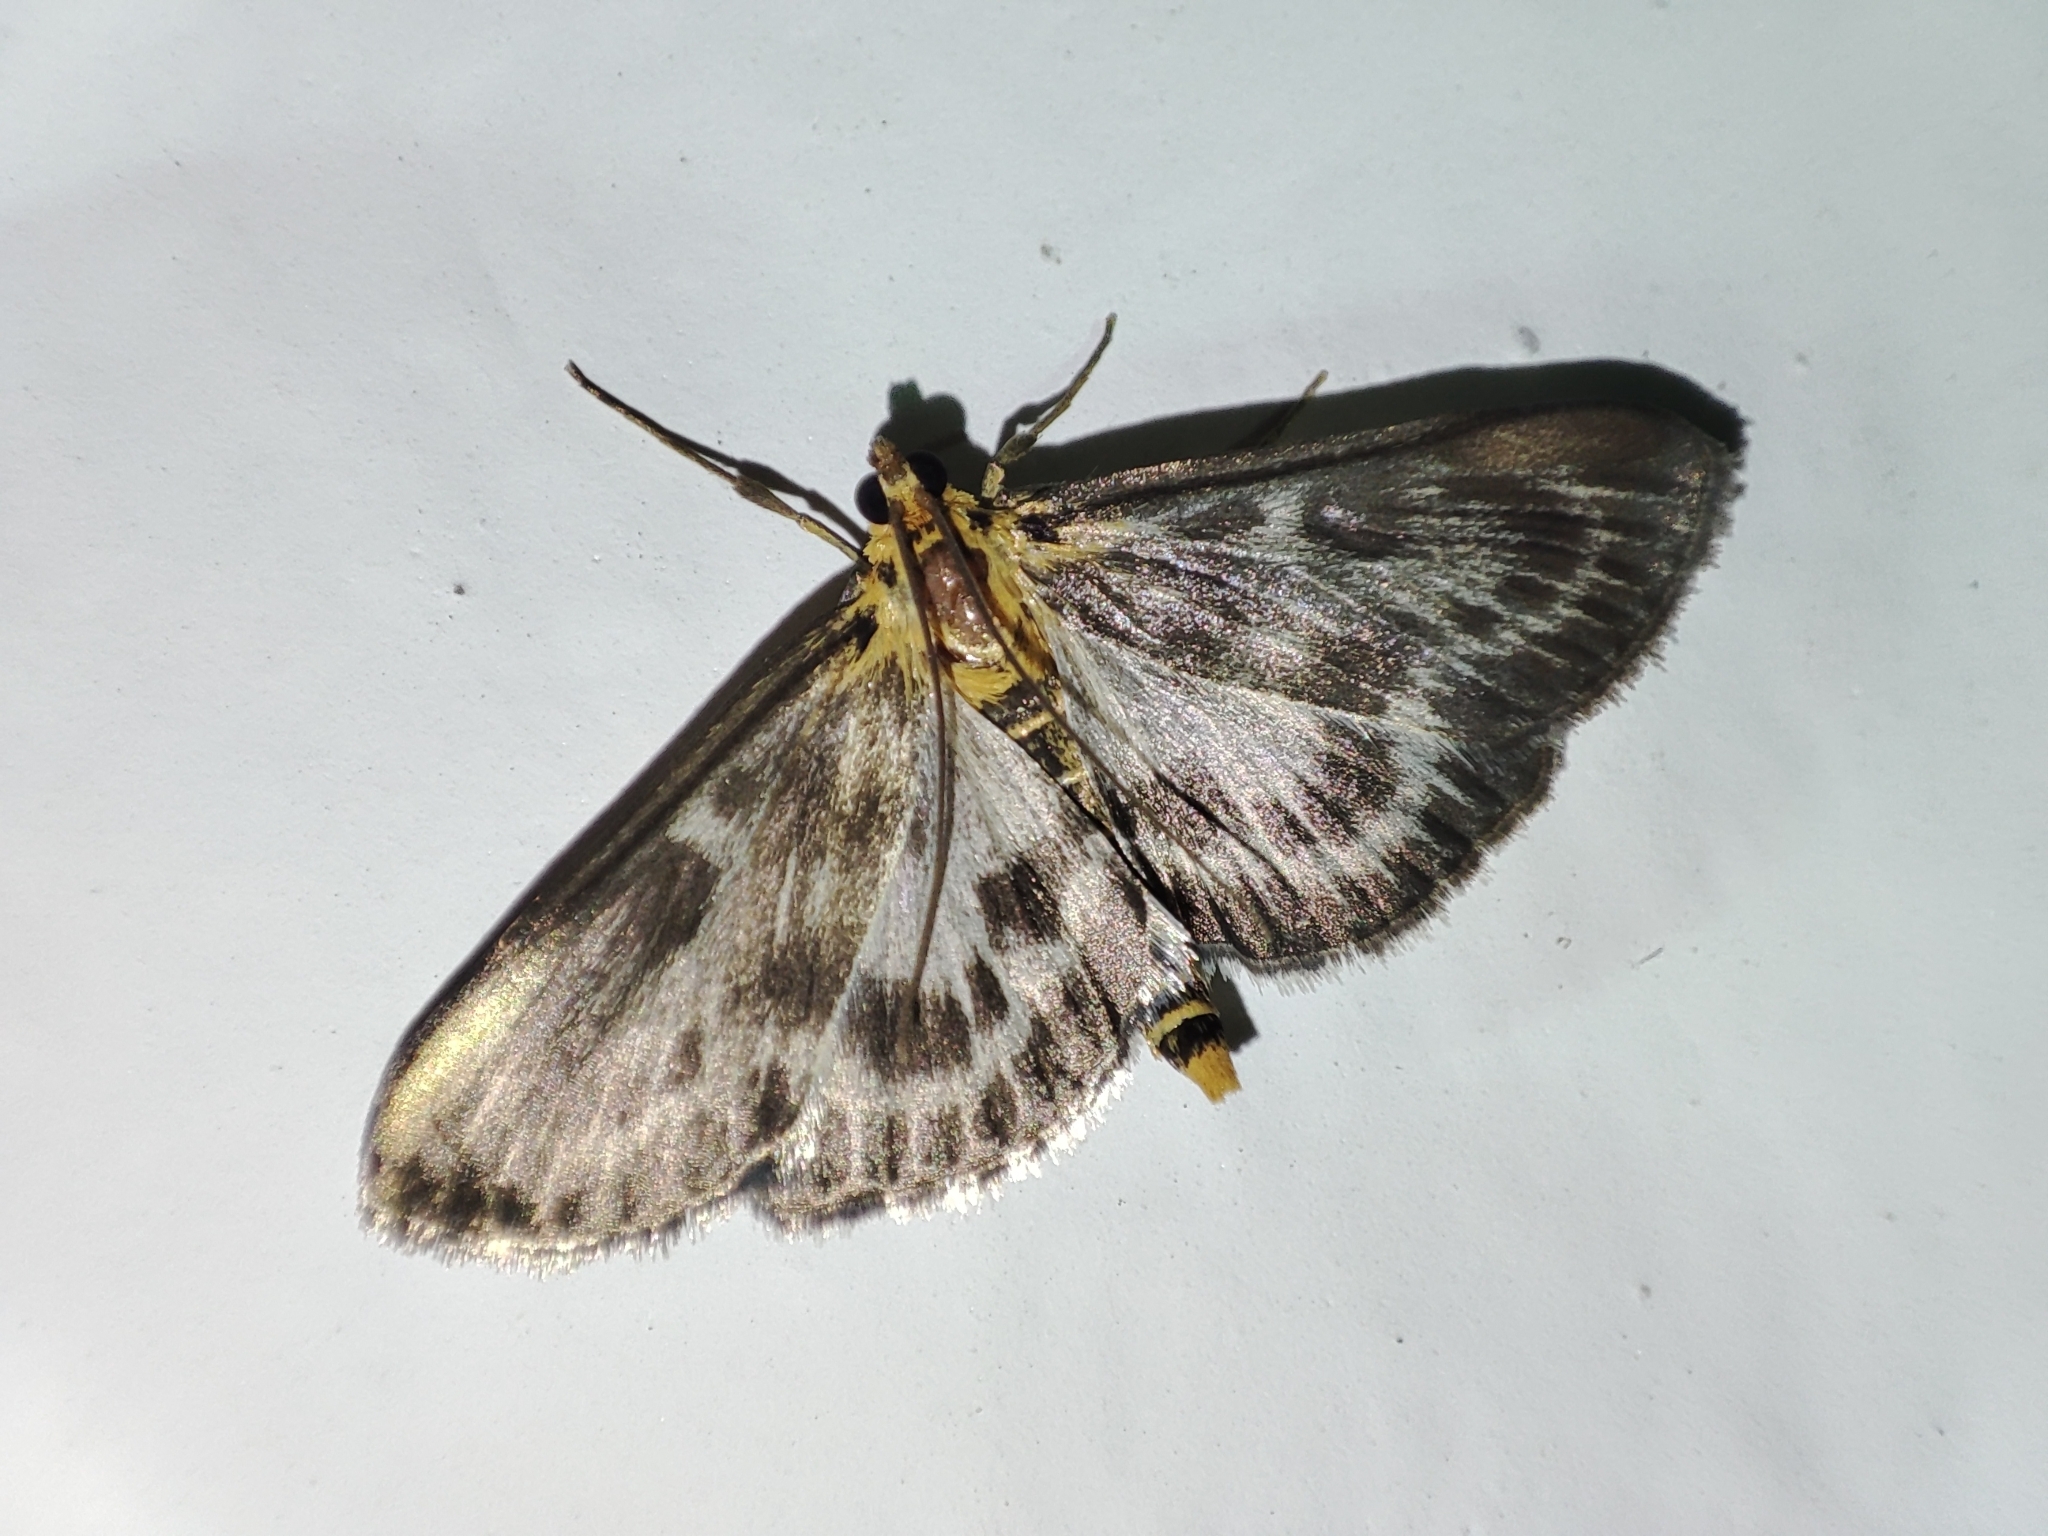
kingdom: Animalia
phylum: Arthropoda
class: Insecta
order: Lepidoptera
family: Crambidae
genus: Anania
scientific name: Anania hortulata
